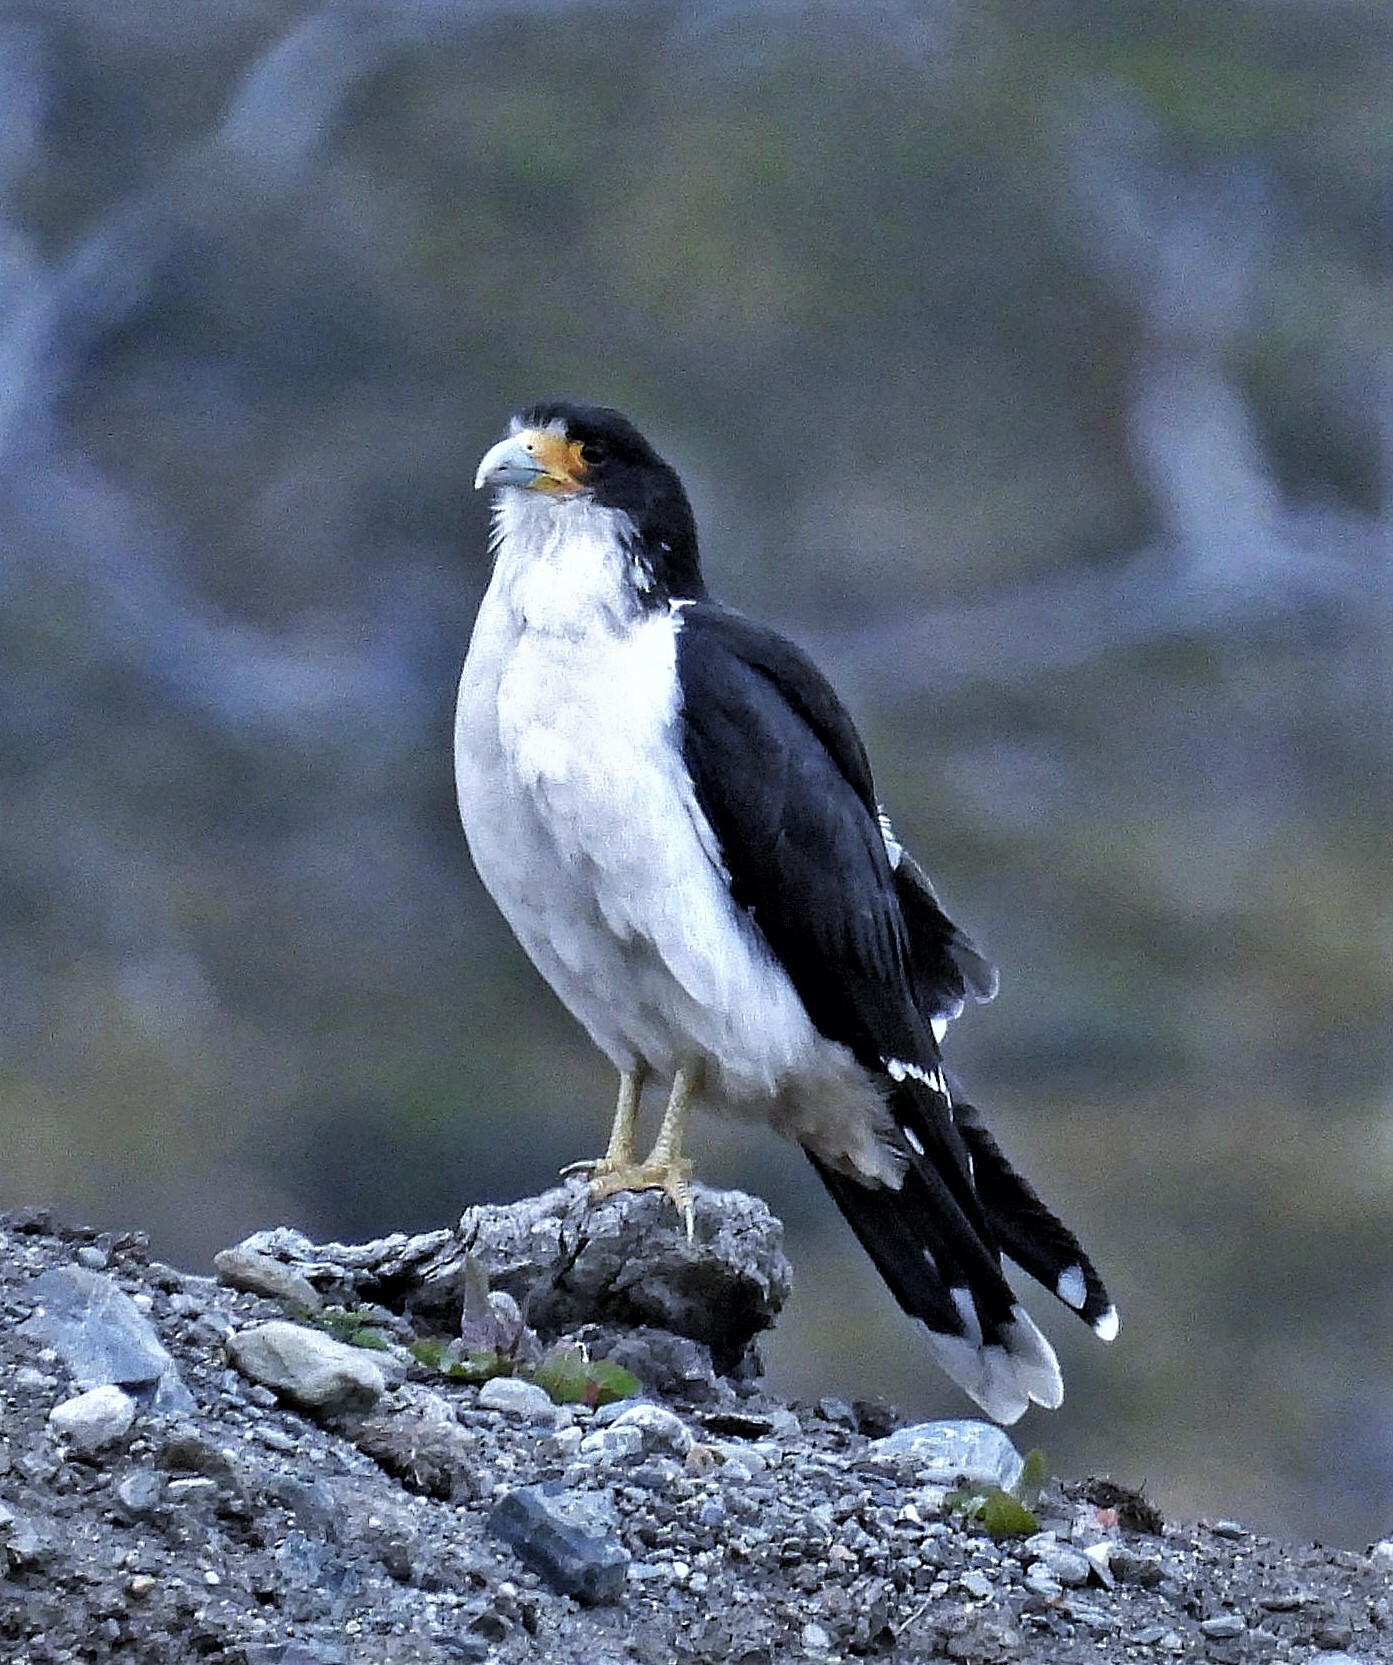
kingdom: Animalia
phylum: Chordata
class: Aves
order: Falconiformes
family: Falconidae
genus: Daptrius
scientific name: Daptrius
